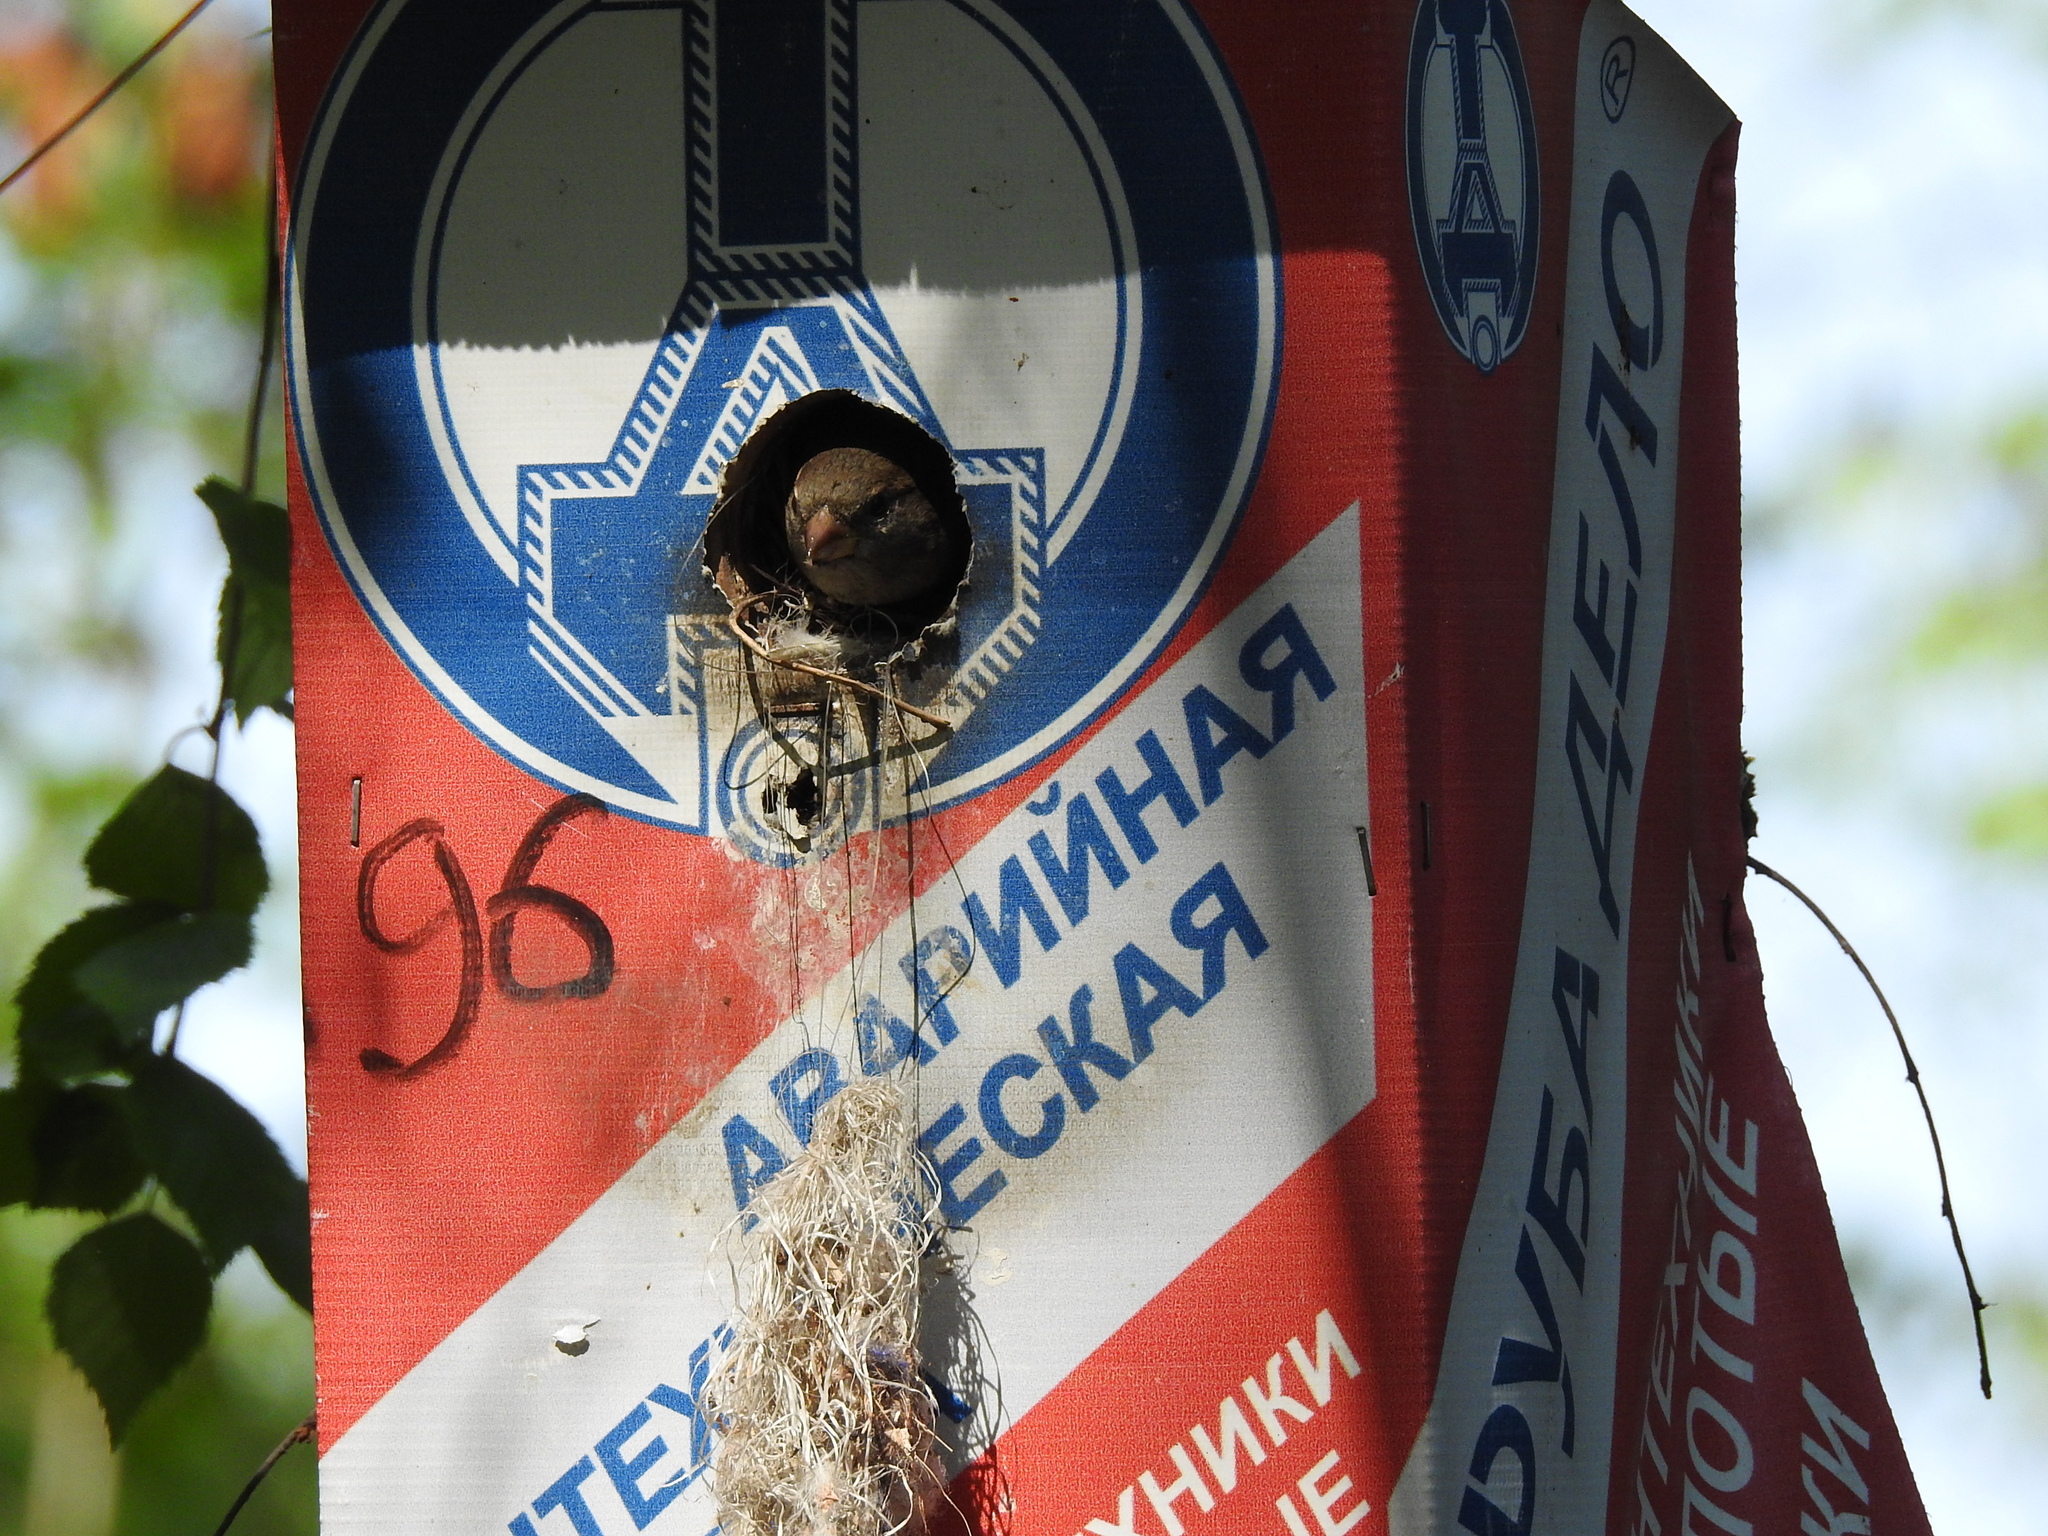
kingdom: Animalia
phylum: Chordata
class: Aves
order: Passeriformes
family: Passeridae
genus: Passer
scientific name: Passer domesticus
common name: House sparrow
